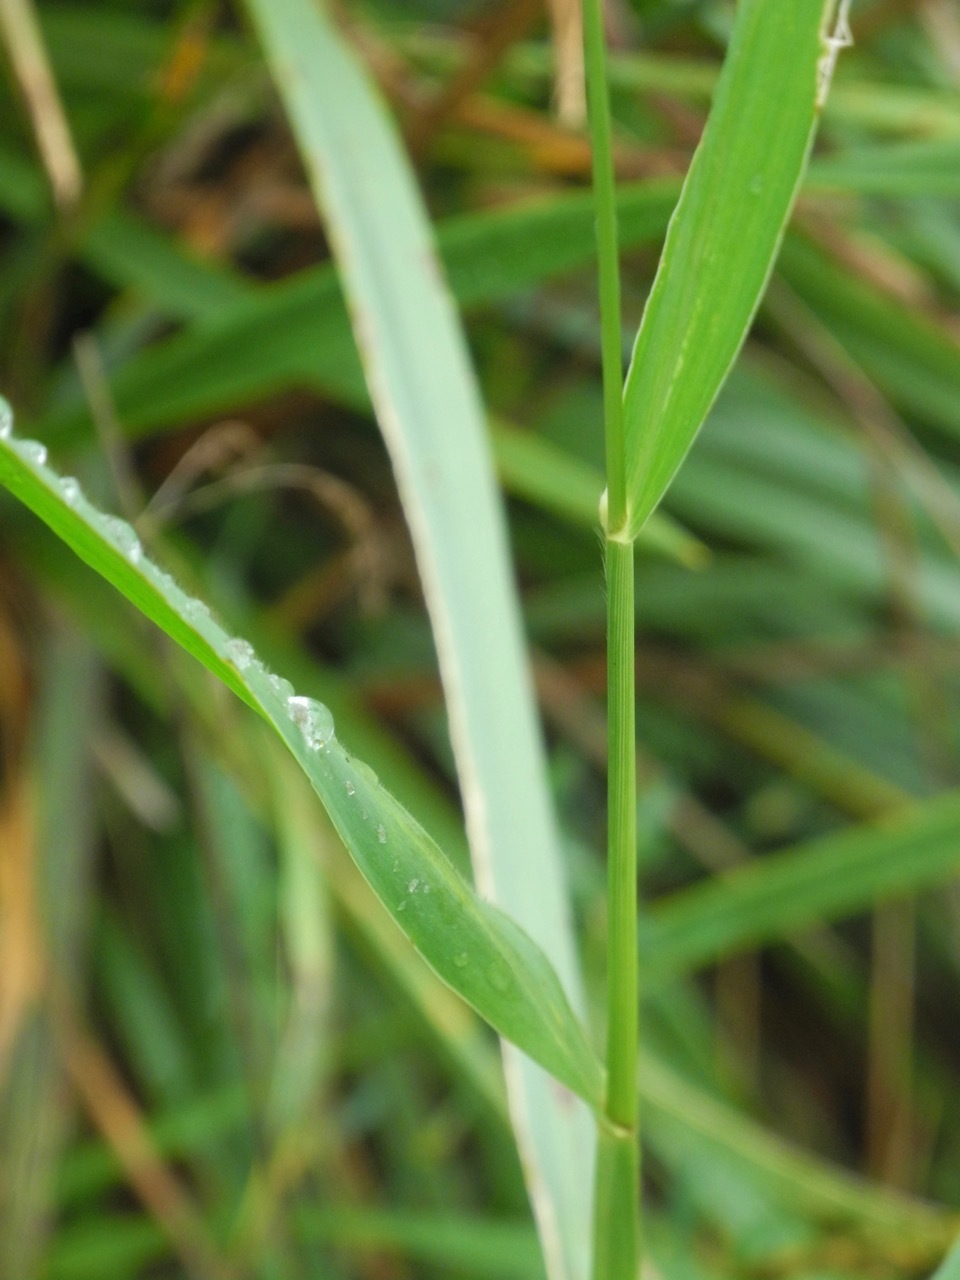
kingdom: Plantae
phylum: Tracheophyta
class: Liliopsida
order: Poales
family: Poaceae
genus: Setaria
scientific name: Setaria viridis
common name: Green bristlegrass
